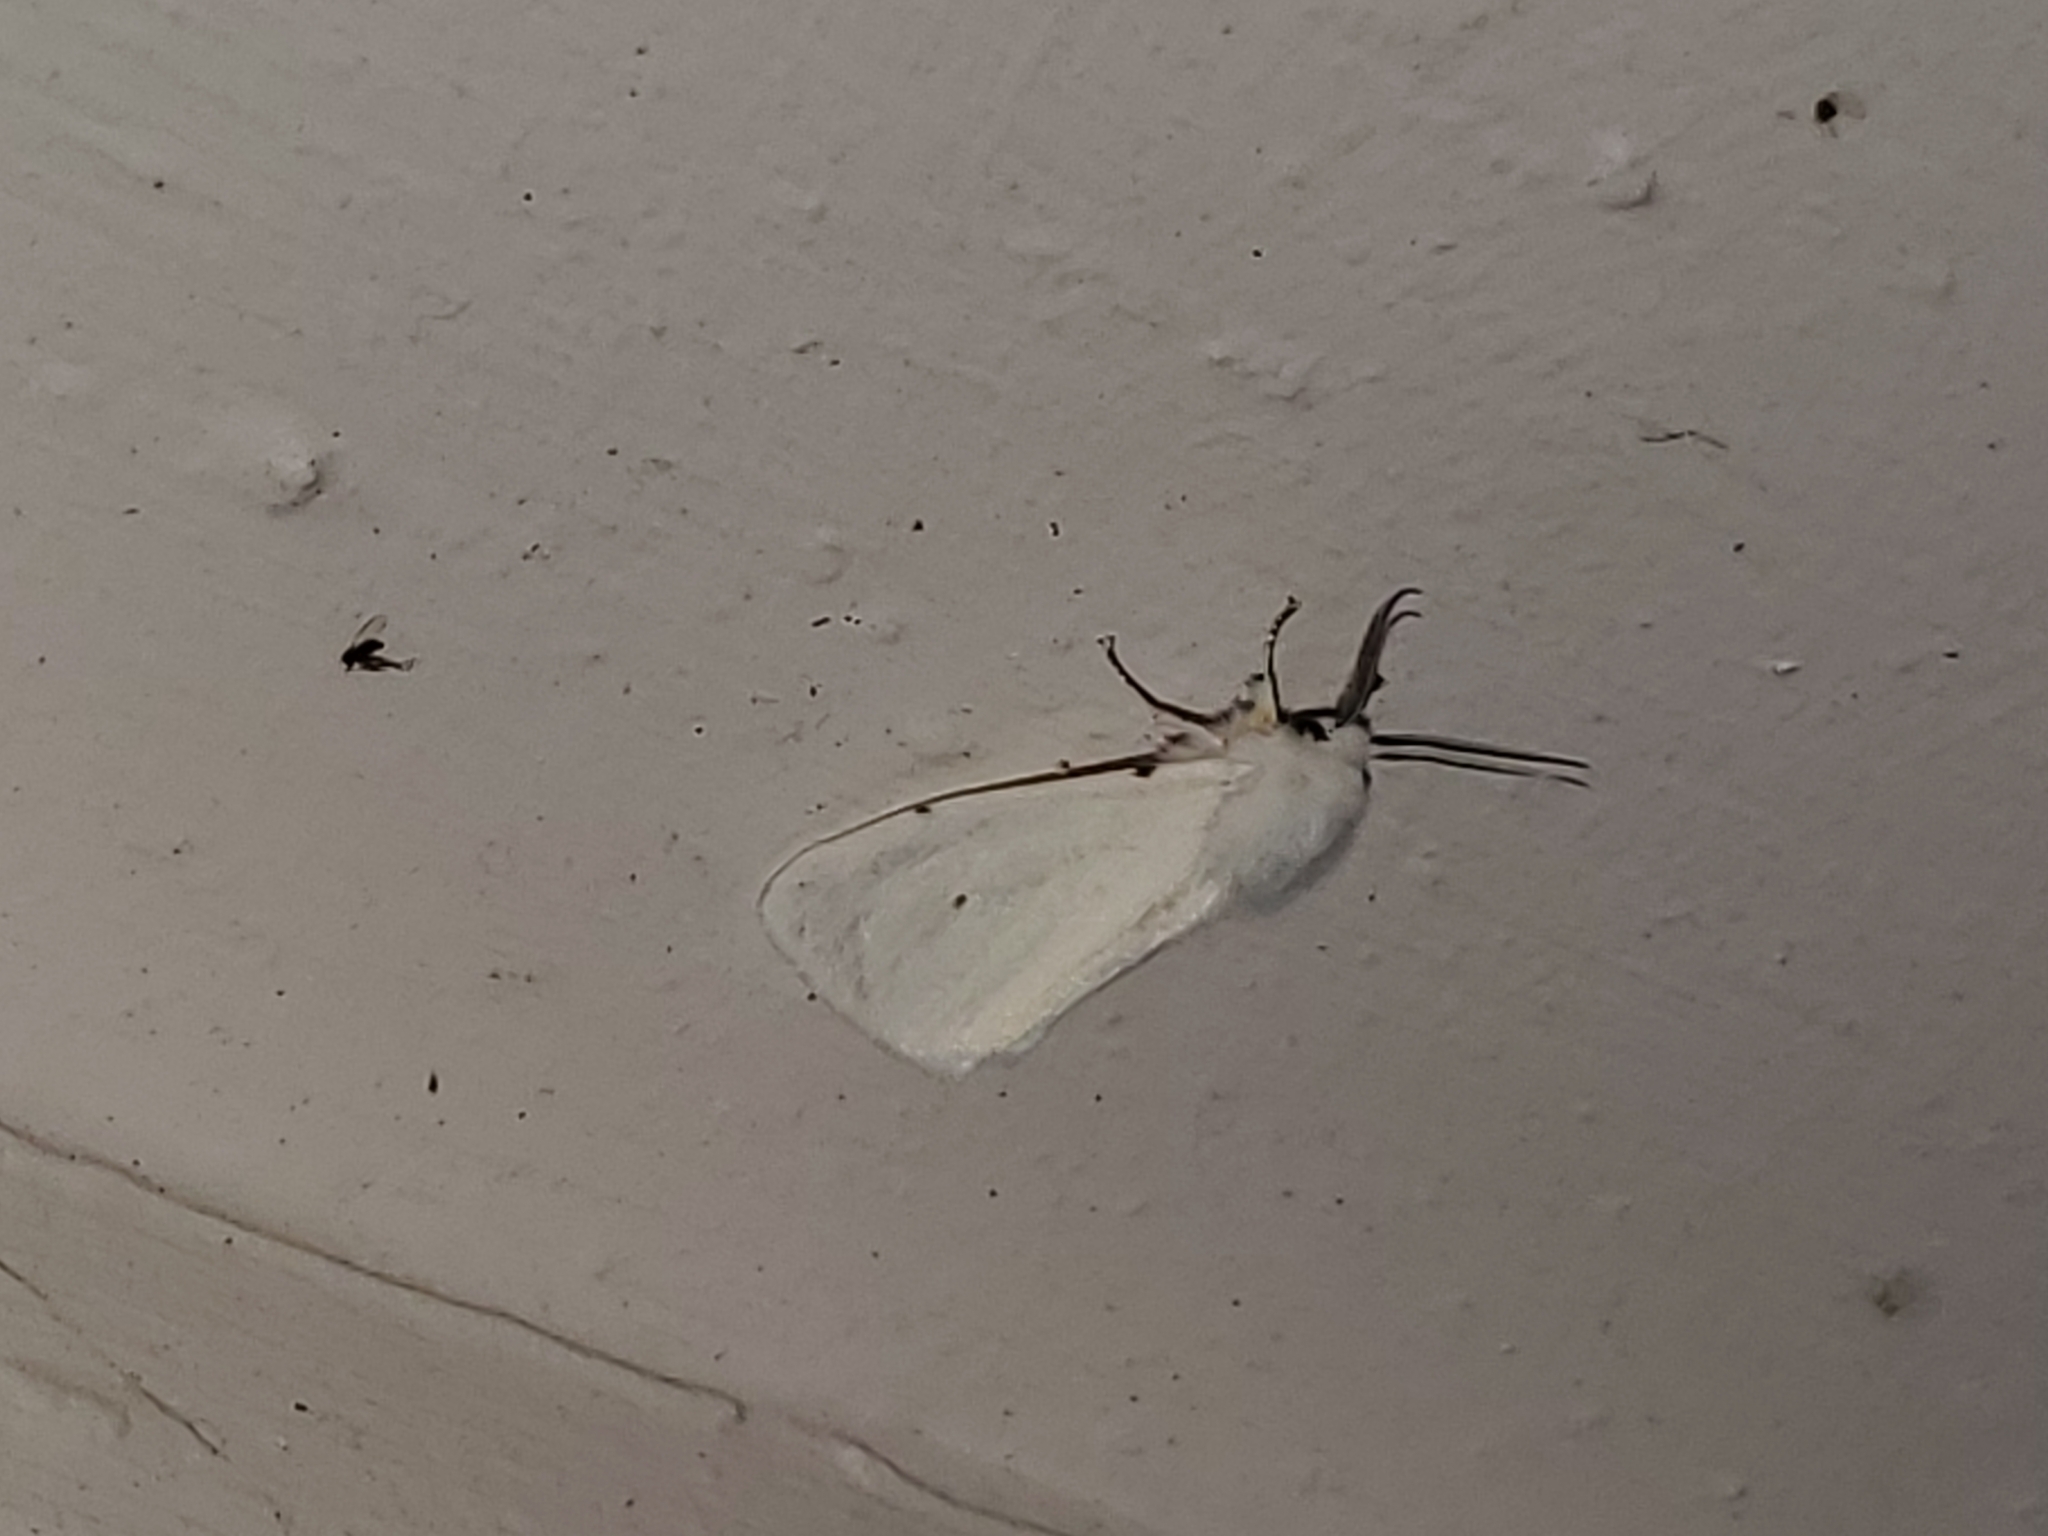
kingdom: Animalia
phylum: Arthropoda
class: Insecta
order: Lepidoptera
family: Erebidae
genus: Hyphantria
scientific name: Hyphantria cunea
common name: American white moth
